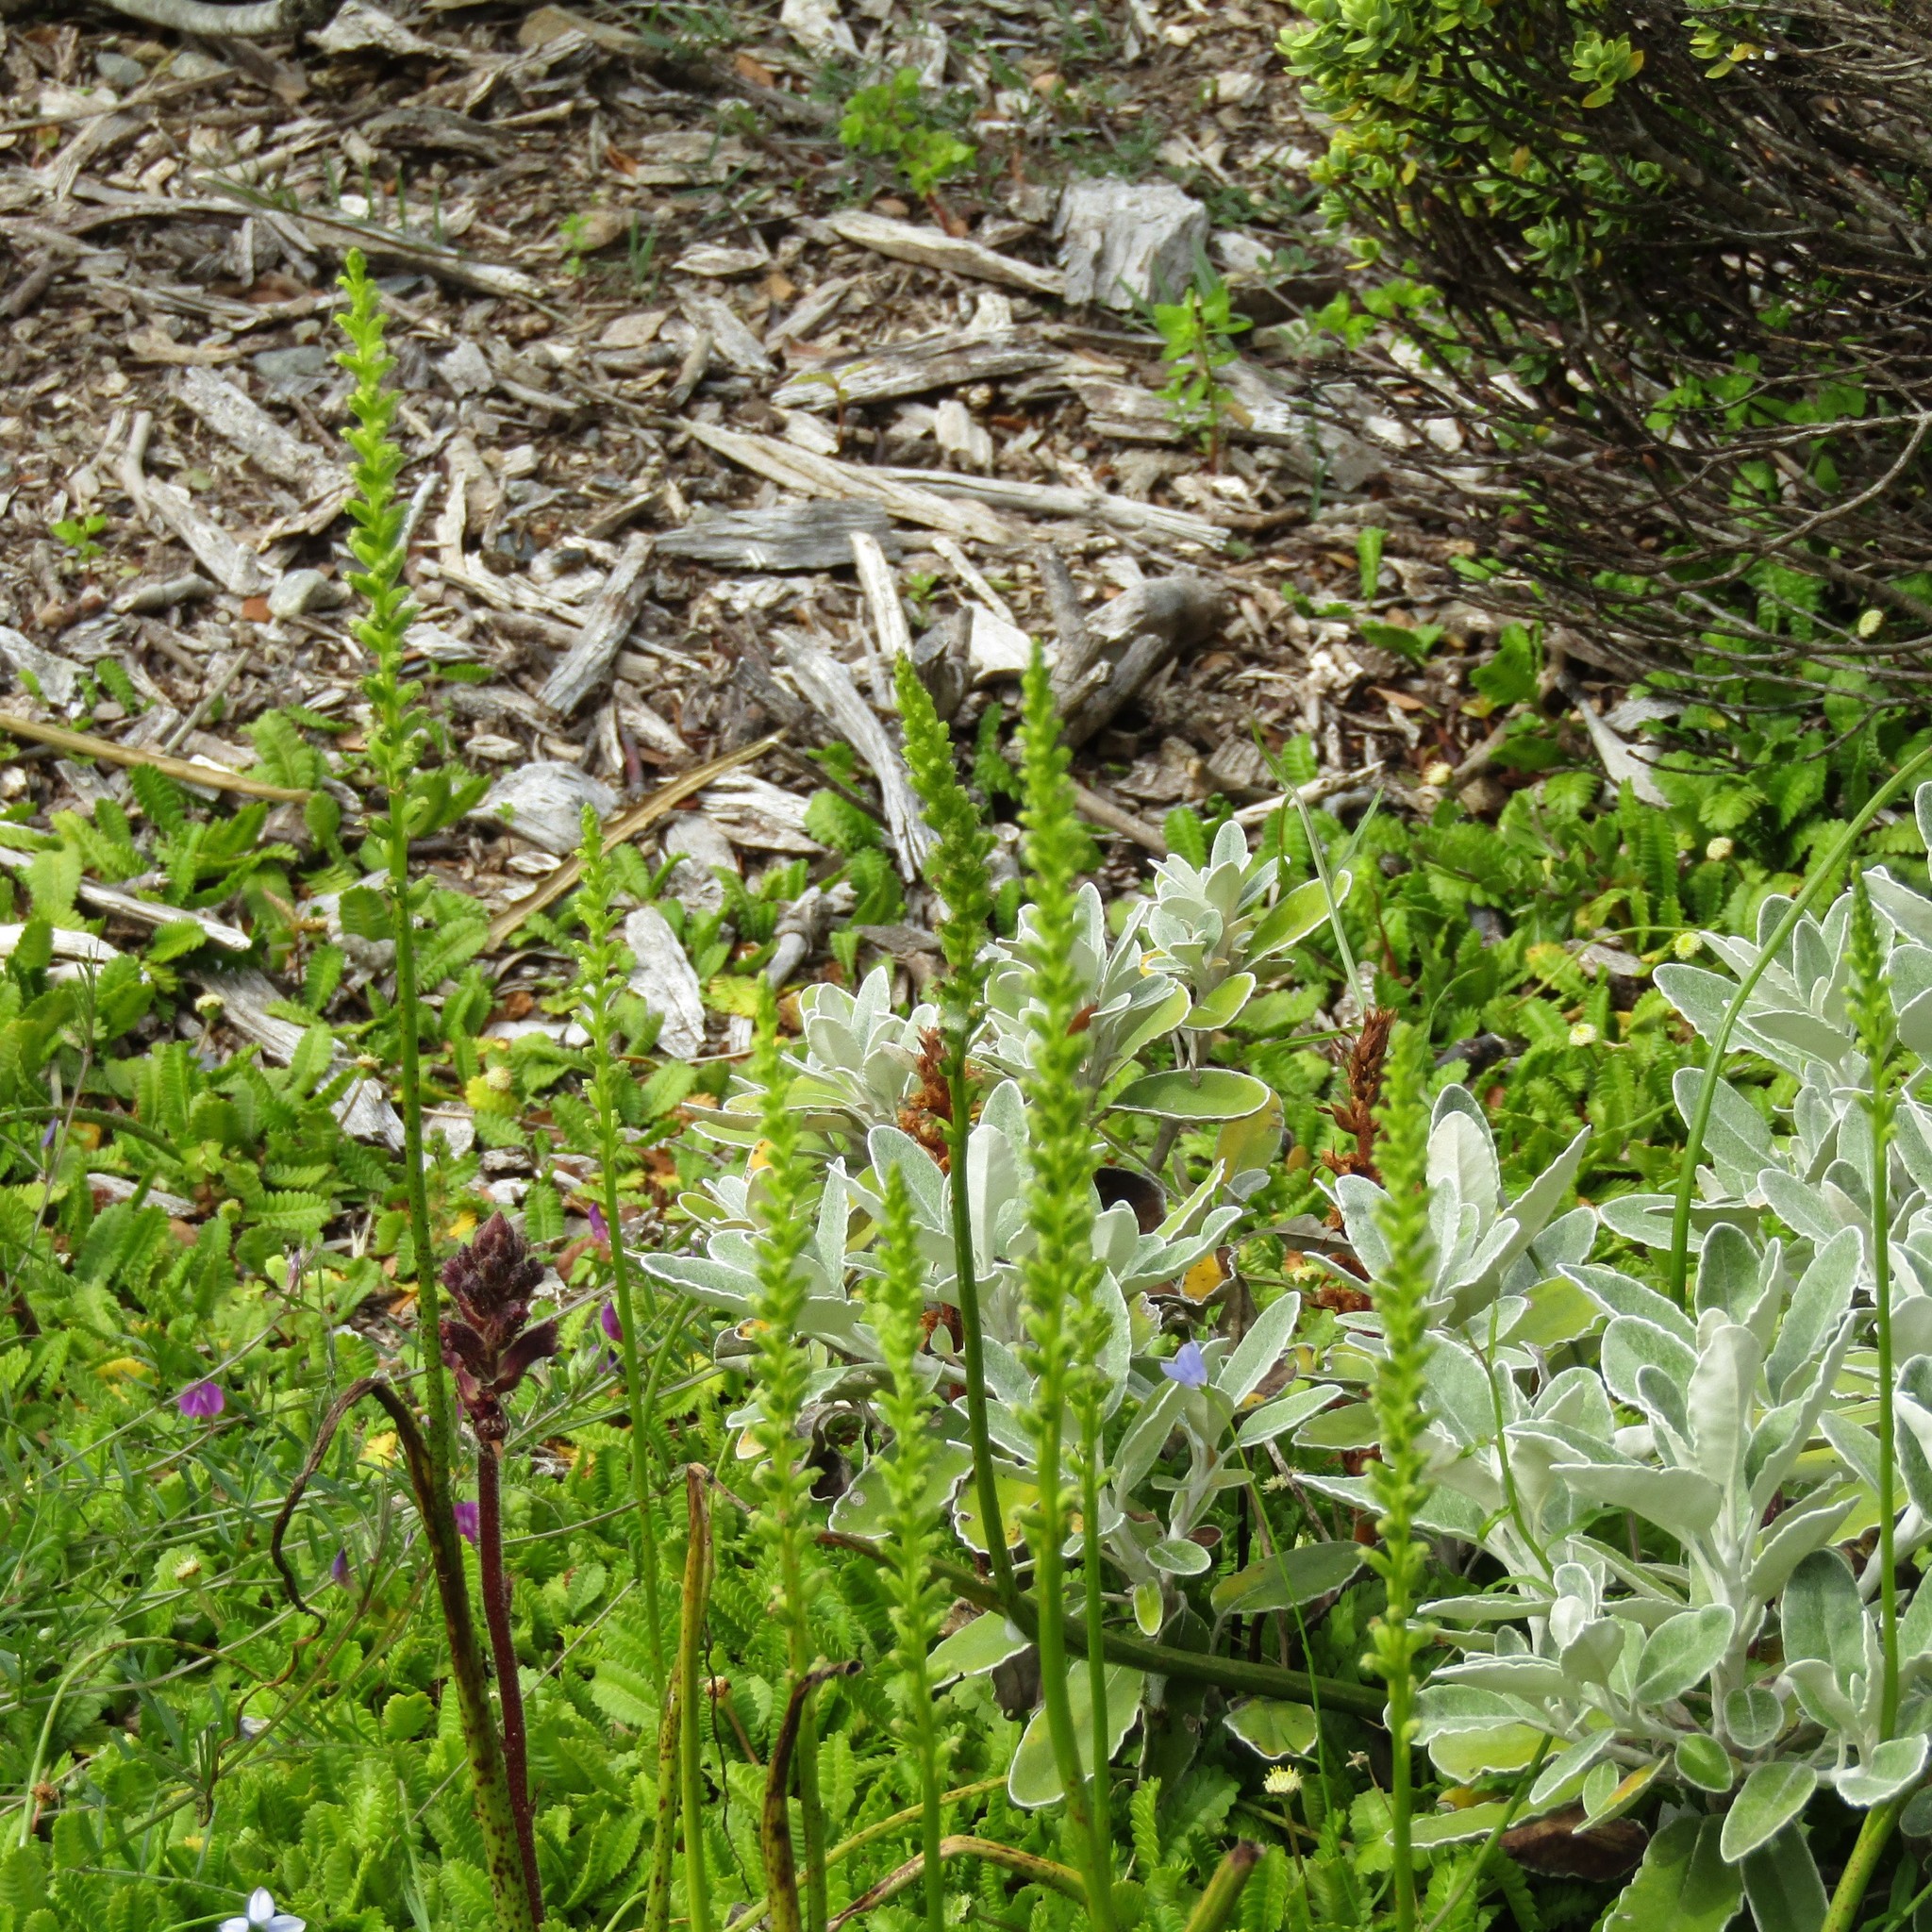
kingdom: Plantae
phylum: Tracheophyta
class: Liliopsida
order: Asparagales
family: Orchidaceae
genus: Microtis
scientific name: Microtis unifolia
